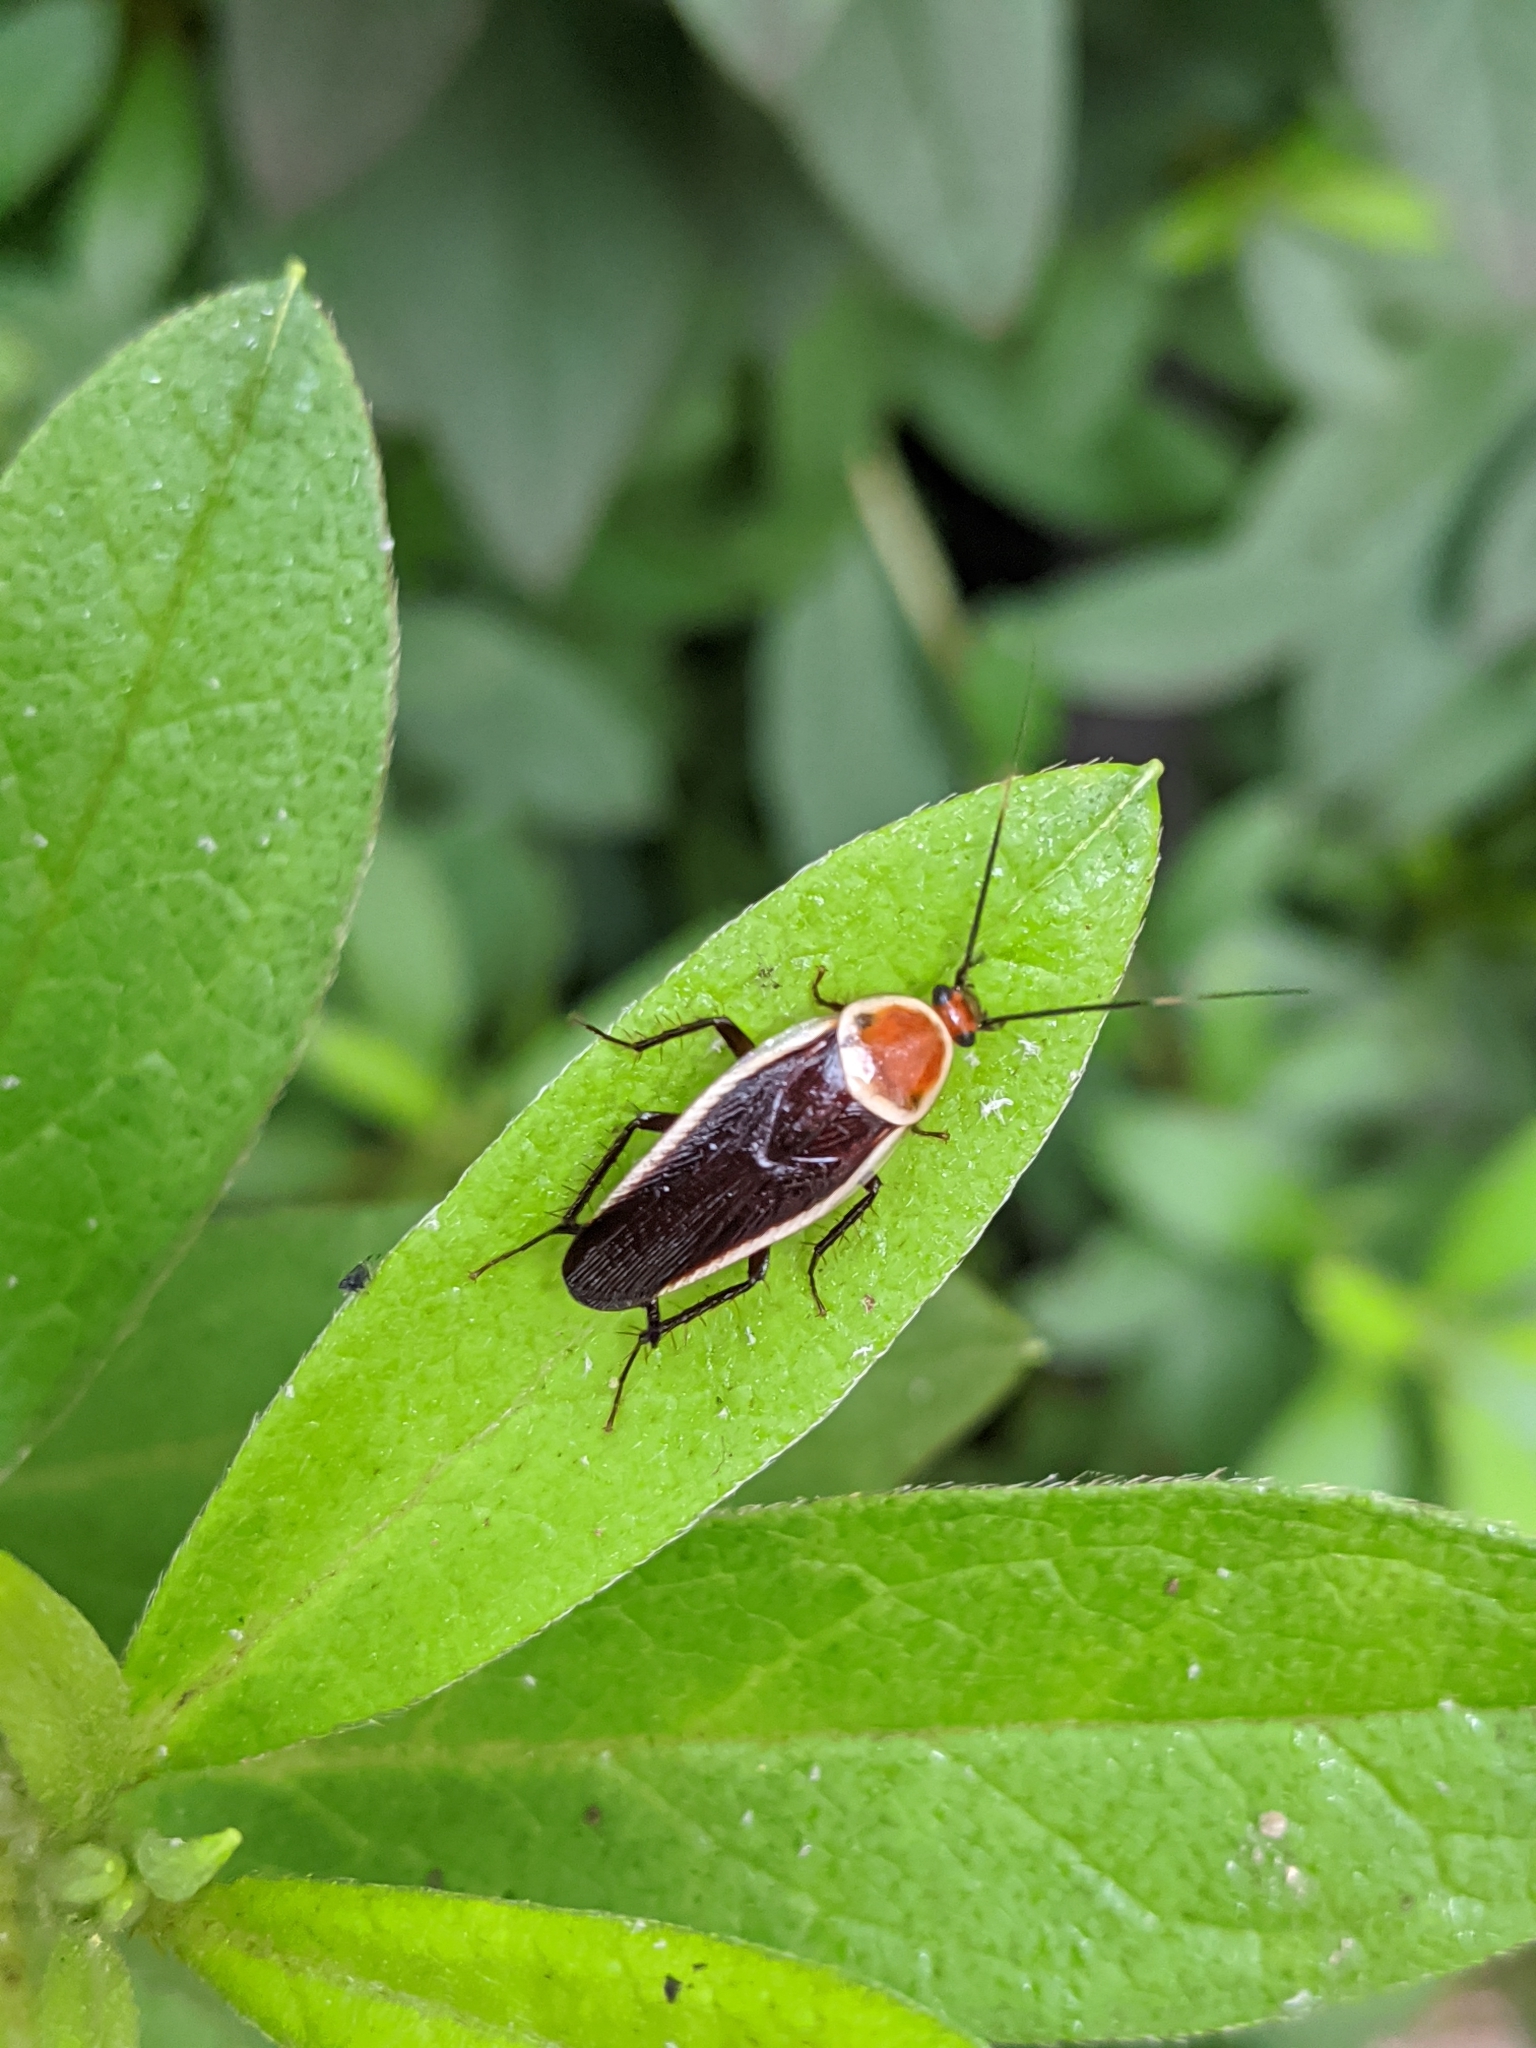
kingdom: Animalia
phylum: Arthropoda
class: Insecta
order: Blattodea
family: Ectobiidae
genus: Pseudomops
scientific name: Pseudomops septentrionalis
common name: Pale-bordered field cockroach
